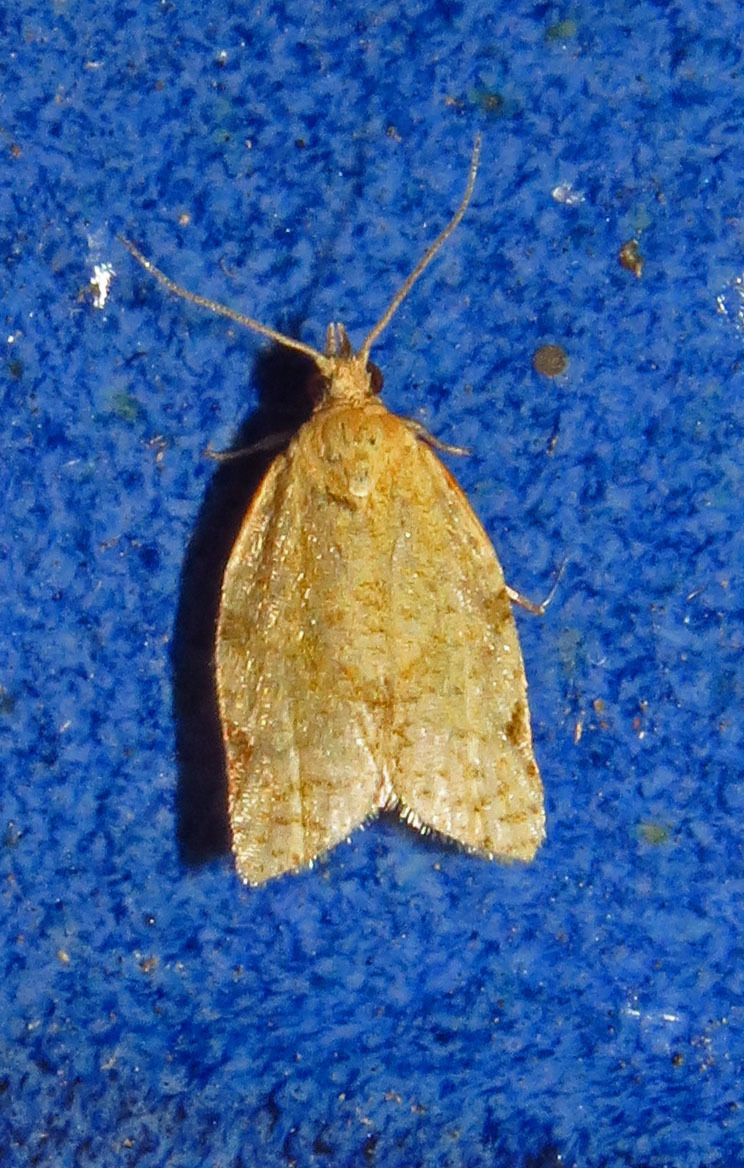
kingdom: Animalia
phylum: Arthropoda
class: Insecta
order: Lepidoptera
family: Tortricidae
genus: Clepsis
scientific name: Clepsis virescana
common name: Greenish apple moth
